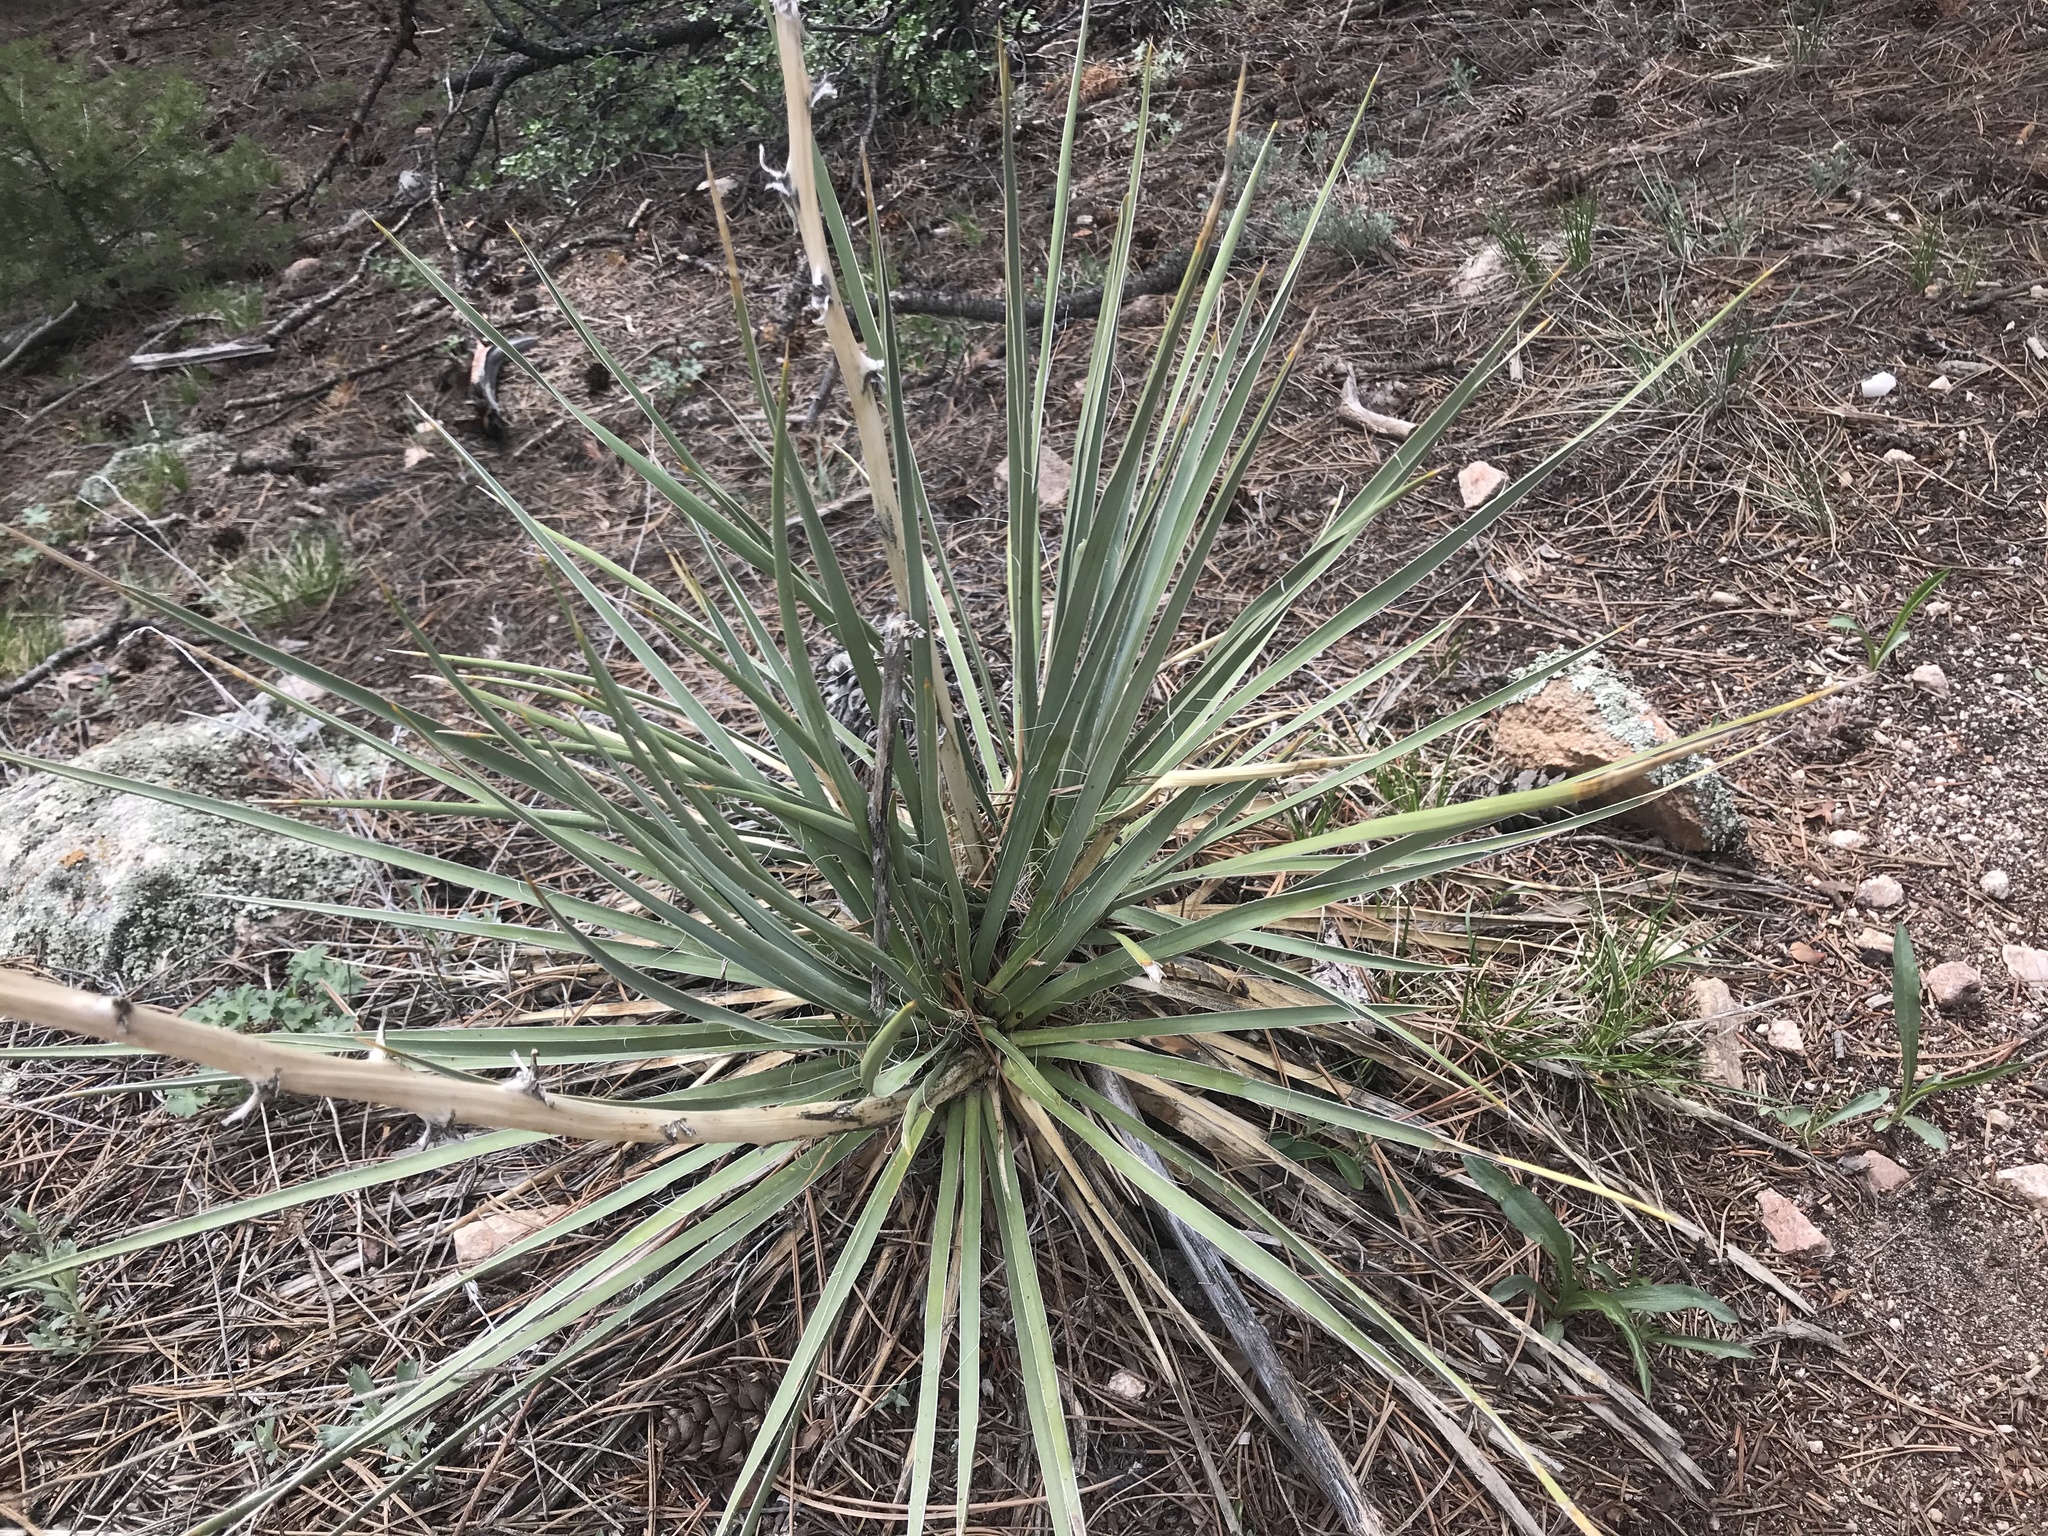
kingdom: Plantae
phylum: Tracheophyta
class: Liliopsida
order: Asparagales
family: Asparagaceae
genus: Yucca
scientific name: Yucca glauca
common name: Great plains yucca
